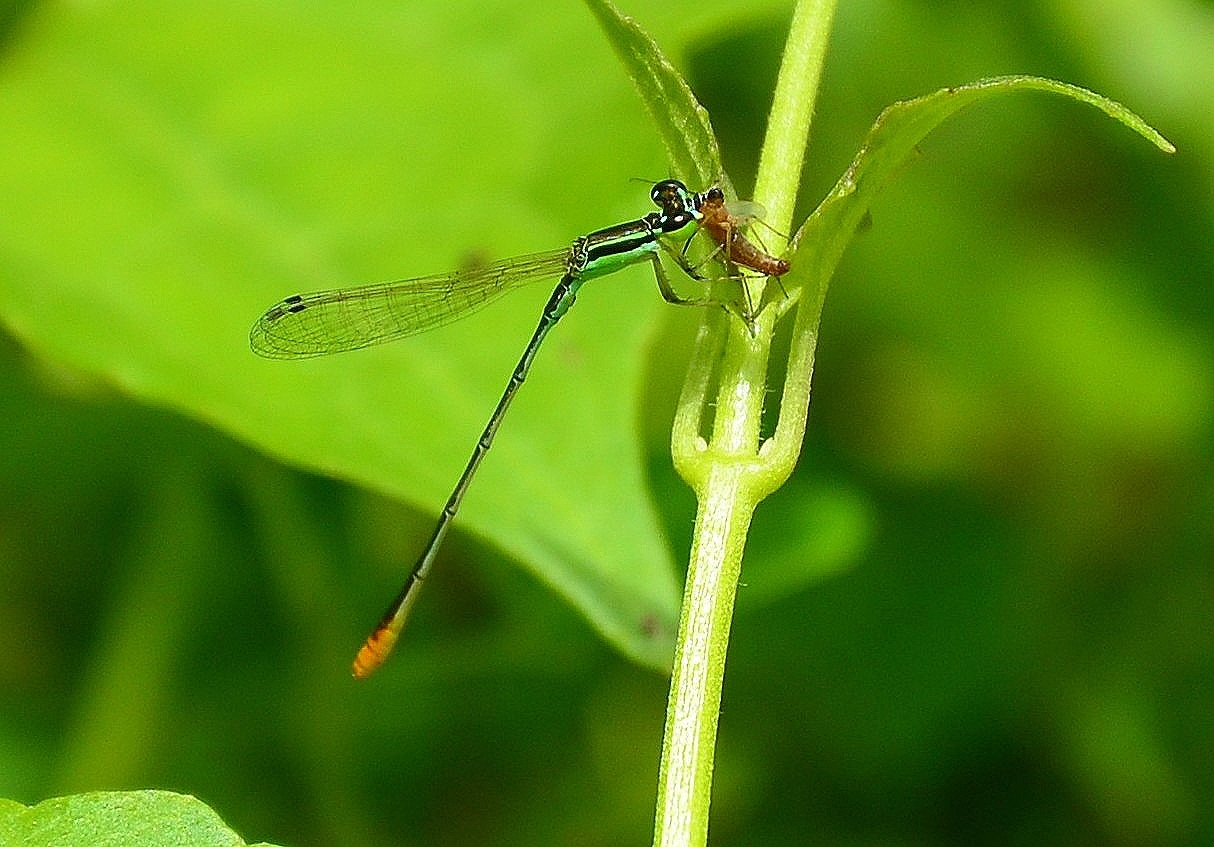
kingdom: Animalia
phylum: Arthropoda
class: Insecta
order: Odonata
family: Coenagrionidae
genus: Agriocnemis
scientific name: Agriocnemis pygmaea
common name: Pygmy wisp
